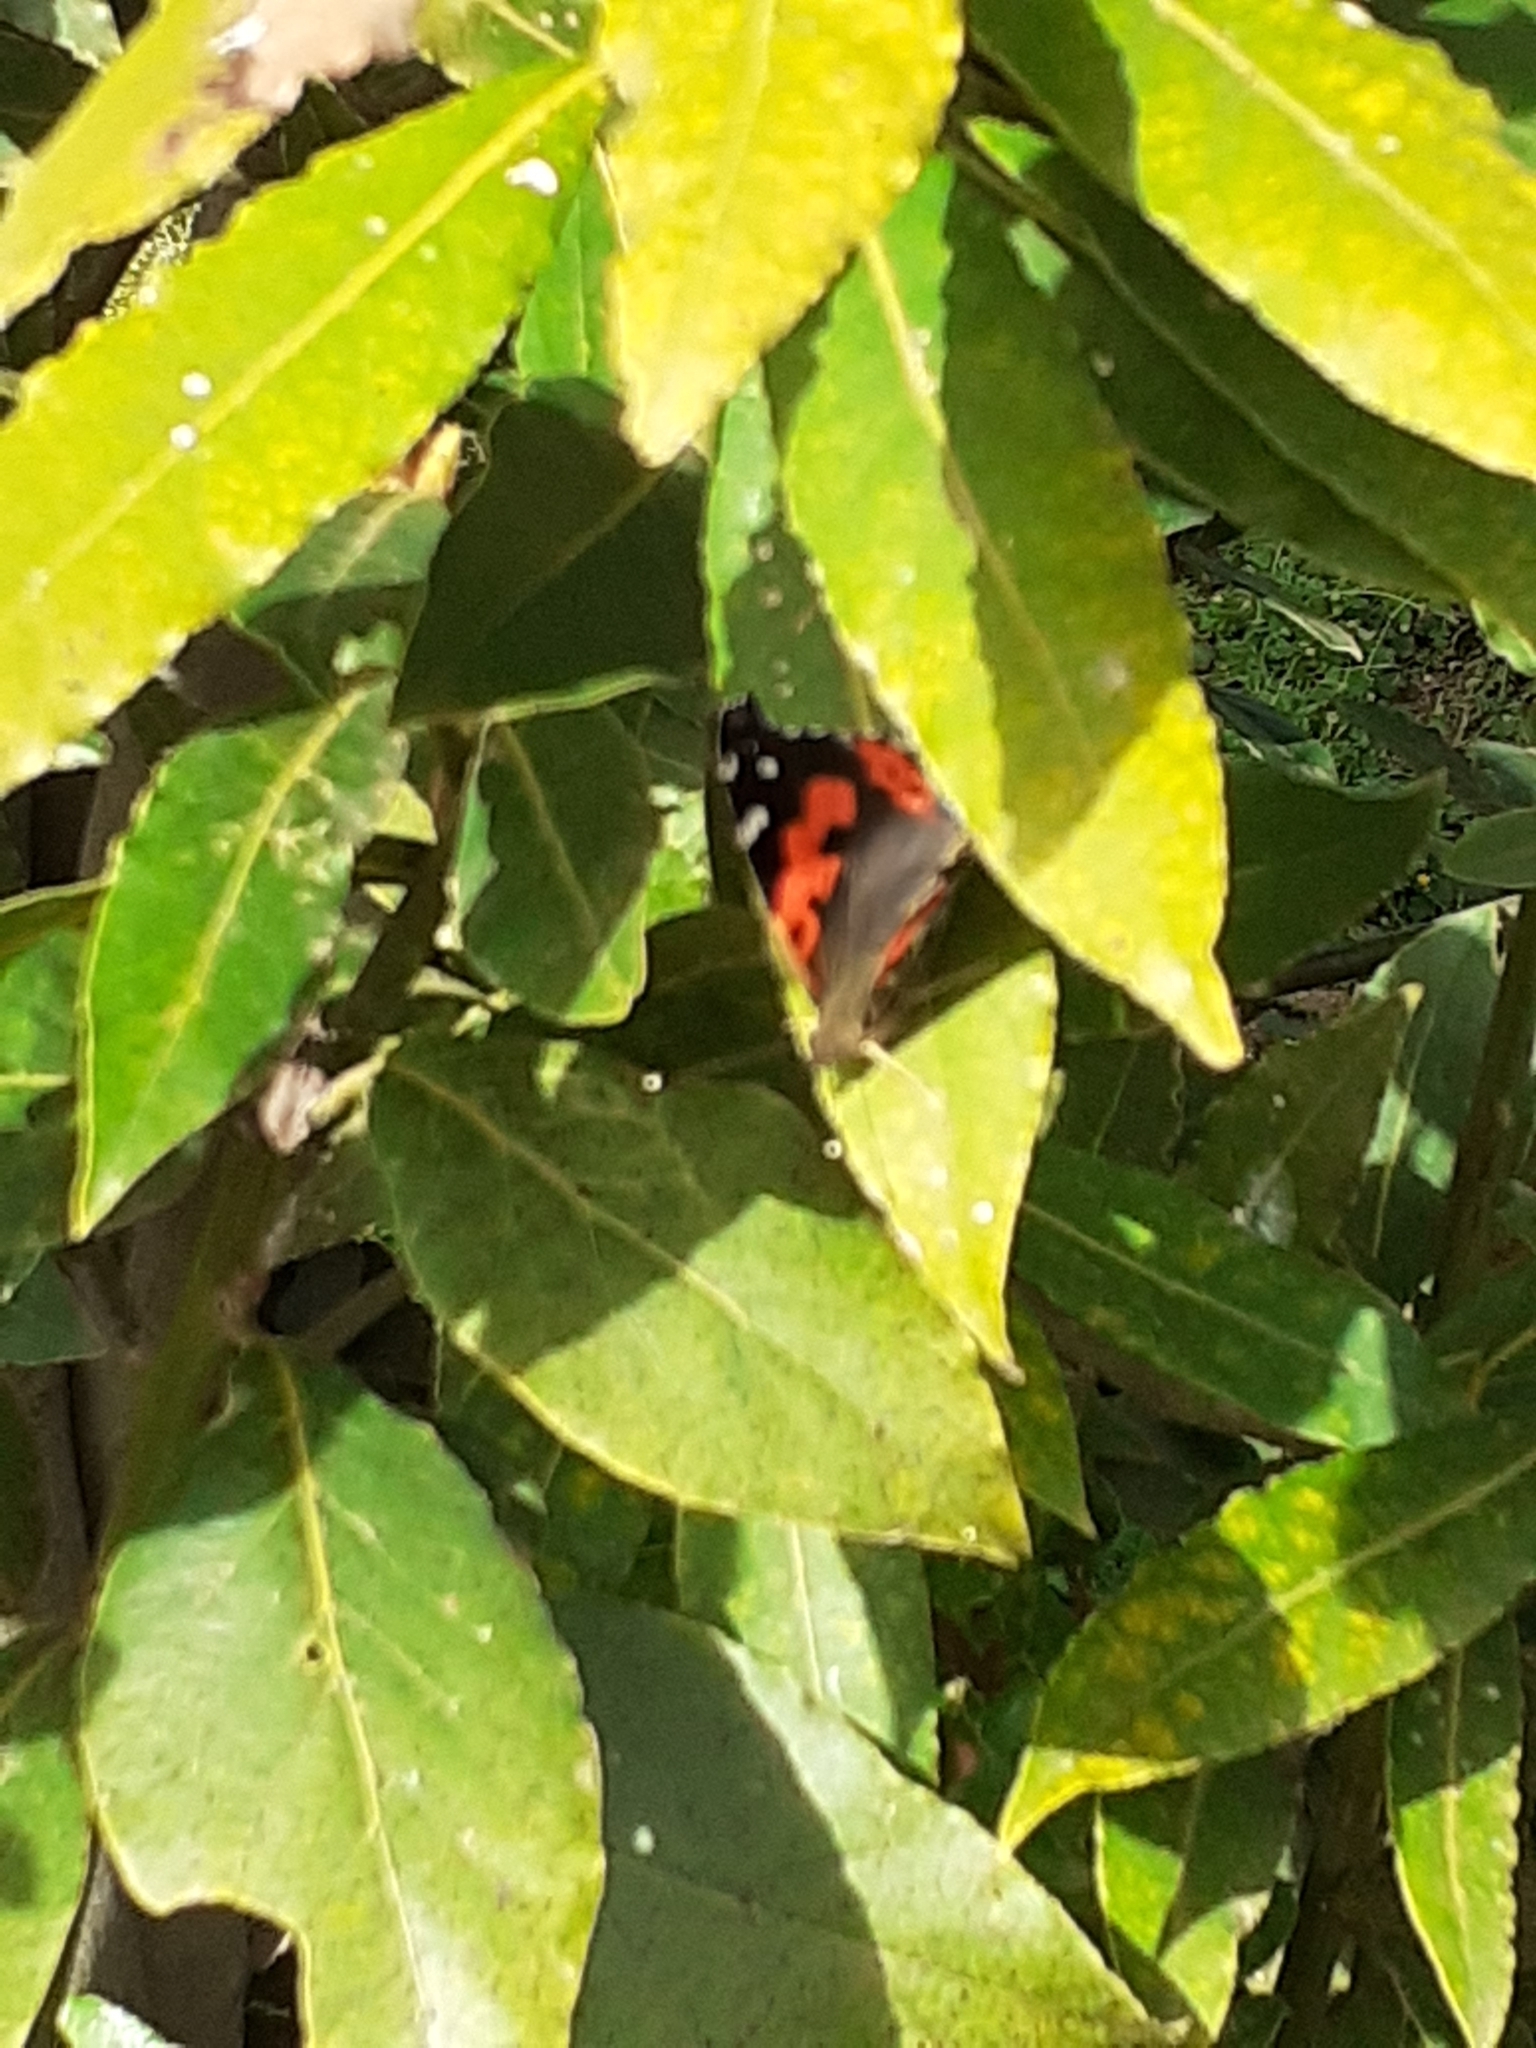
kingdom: Animalia
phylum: Arthropoda
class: Insecta
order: Lepidoptera
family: Nymphalidae
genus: Vanessa
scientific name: Vanessa vulcania
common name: Canary red admiral
